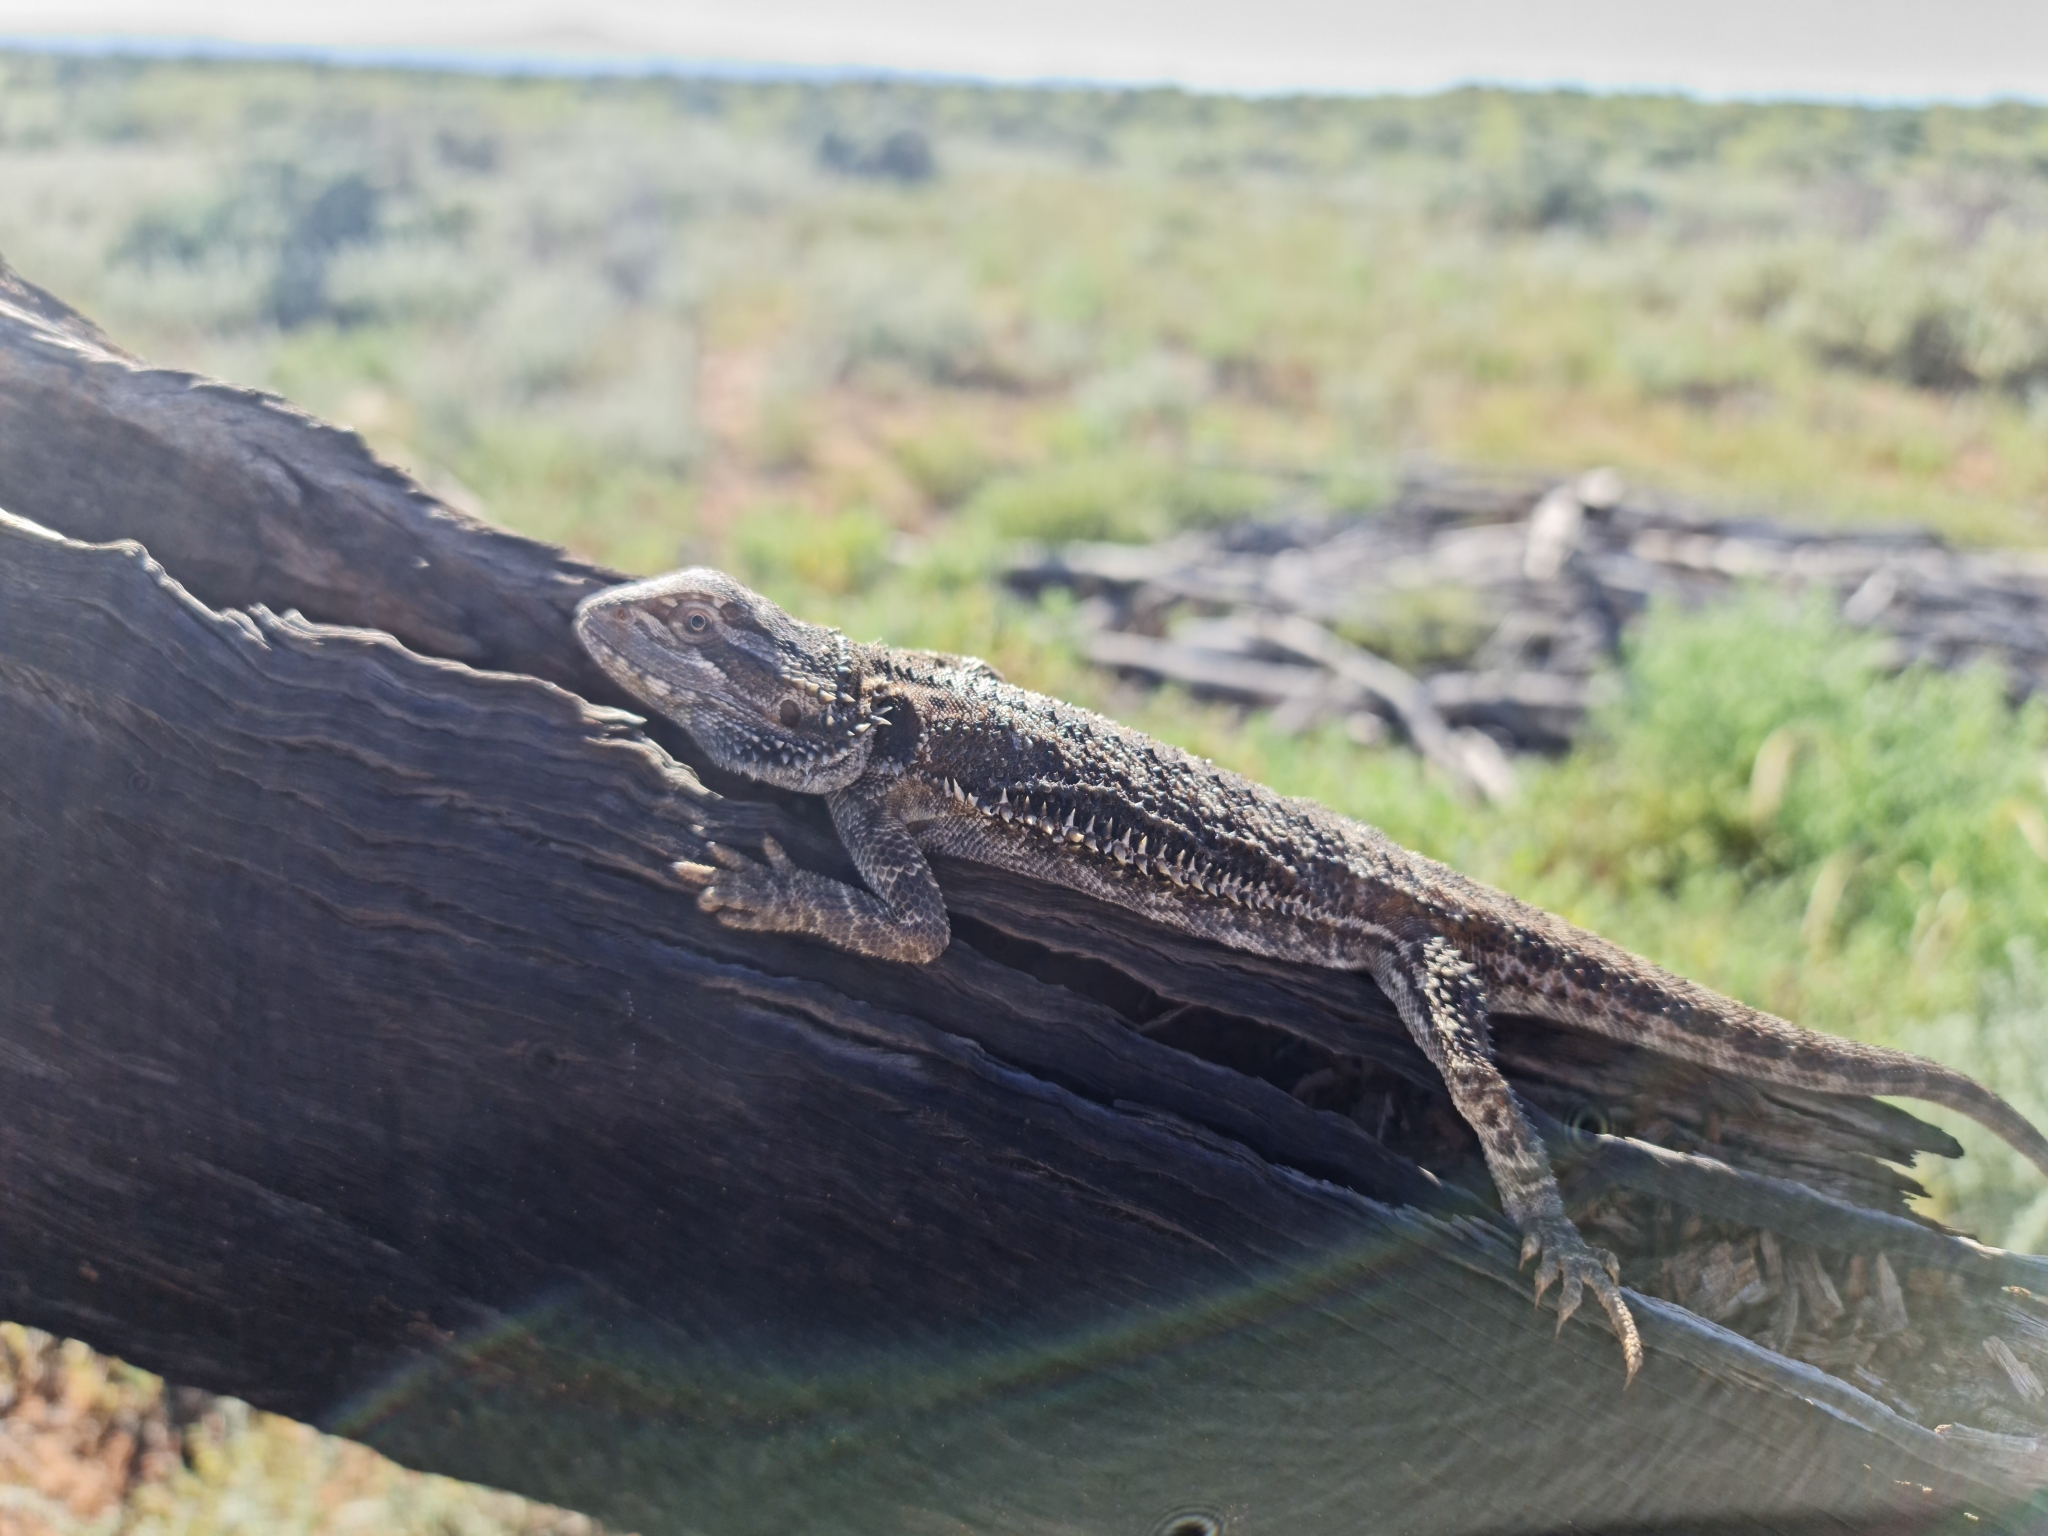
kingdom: Animalia
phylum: Chordata
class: Squamata
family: Agamidae
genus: Pogona
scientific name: Pogona vitticeps
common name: Central bearded dragon
